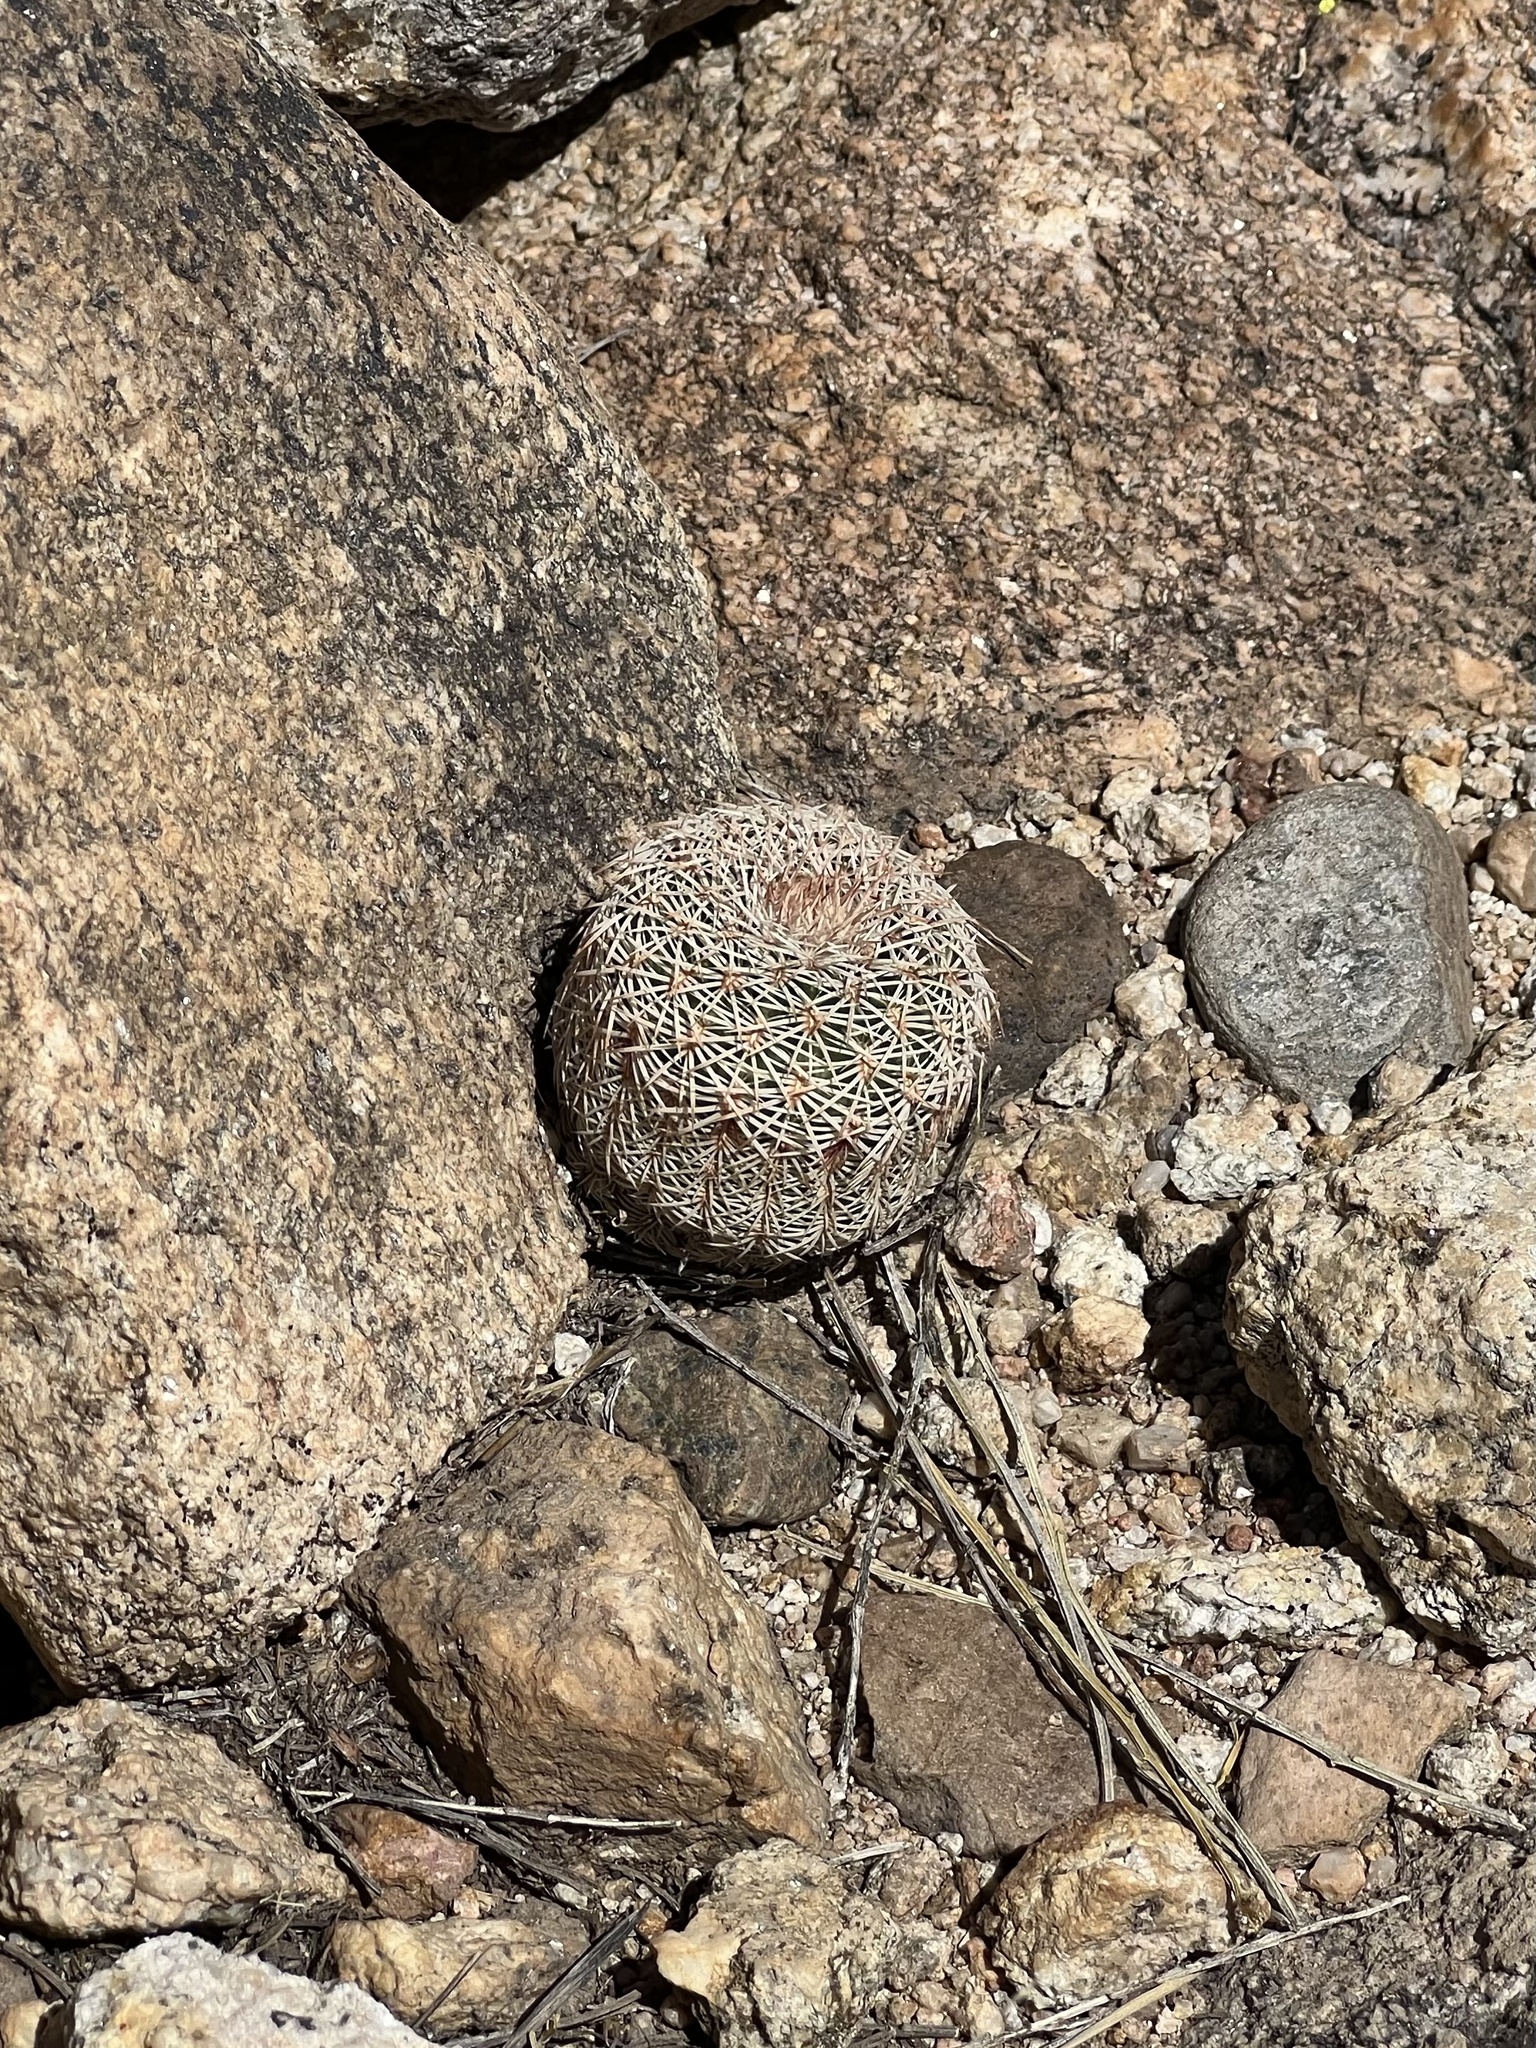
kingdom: Plantae
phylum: Tracheophyta
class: Magnoliopsida
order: Caryophyllales
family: Cactaceae
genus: Echinocereus
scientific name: Echinocereus rigidissimus
